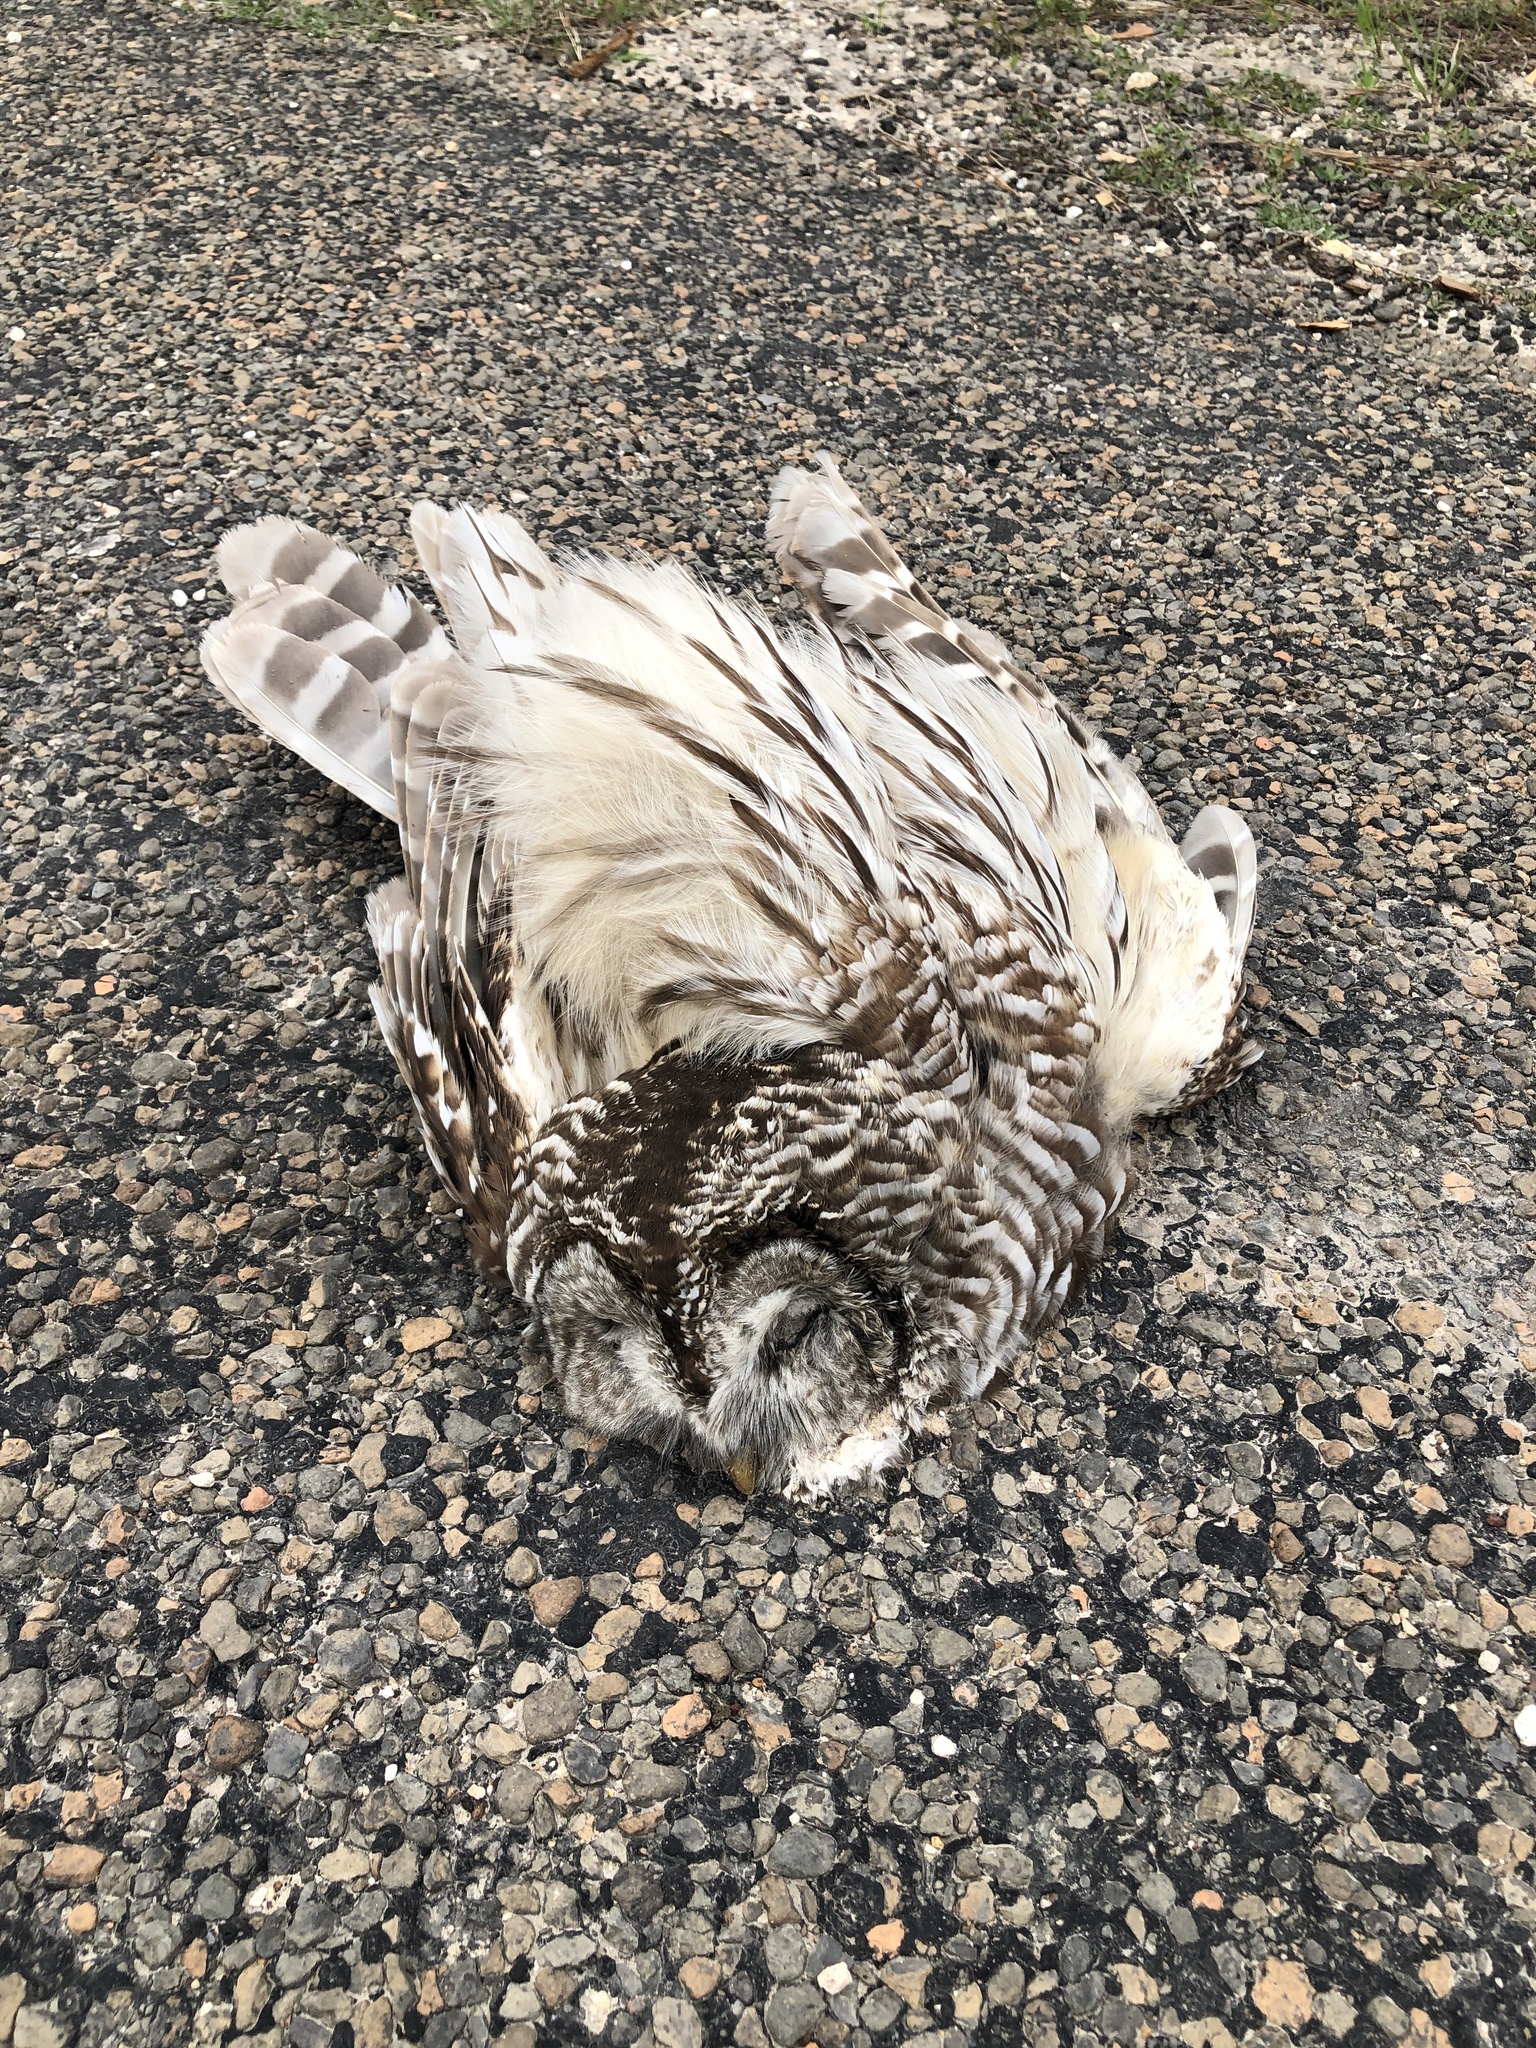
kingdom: Animalia
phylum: Chordata
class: Aves
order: Strigiformes
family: Strigidae
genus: Strix
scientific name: Strix varia
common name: Barred owl
